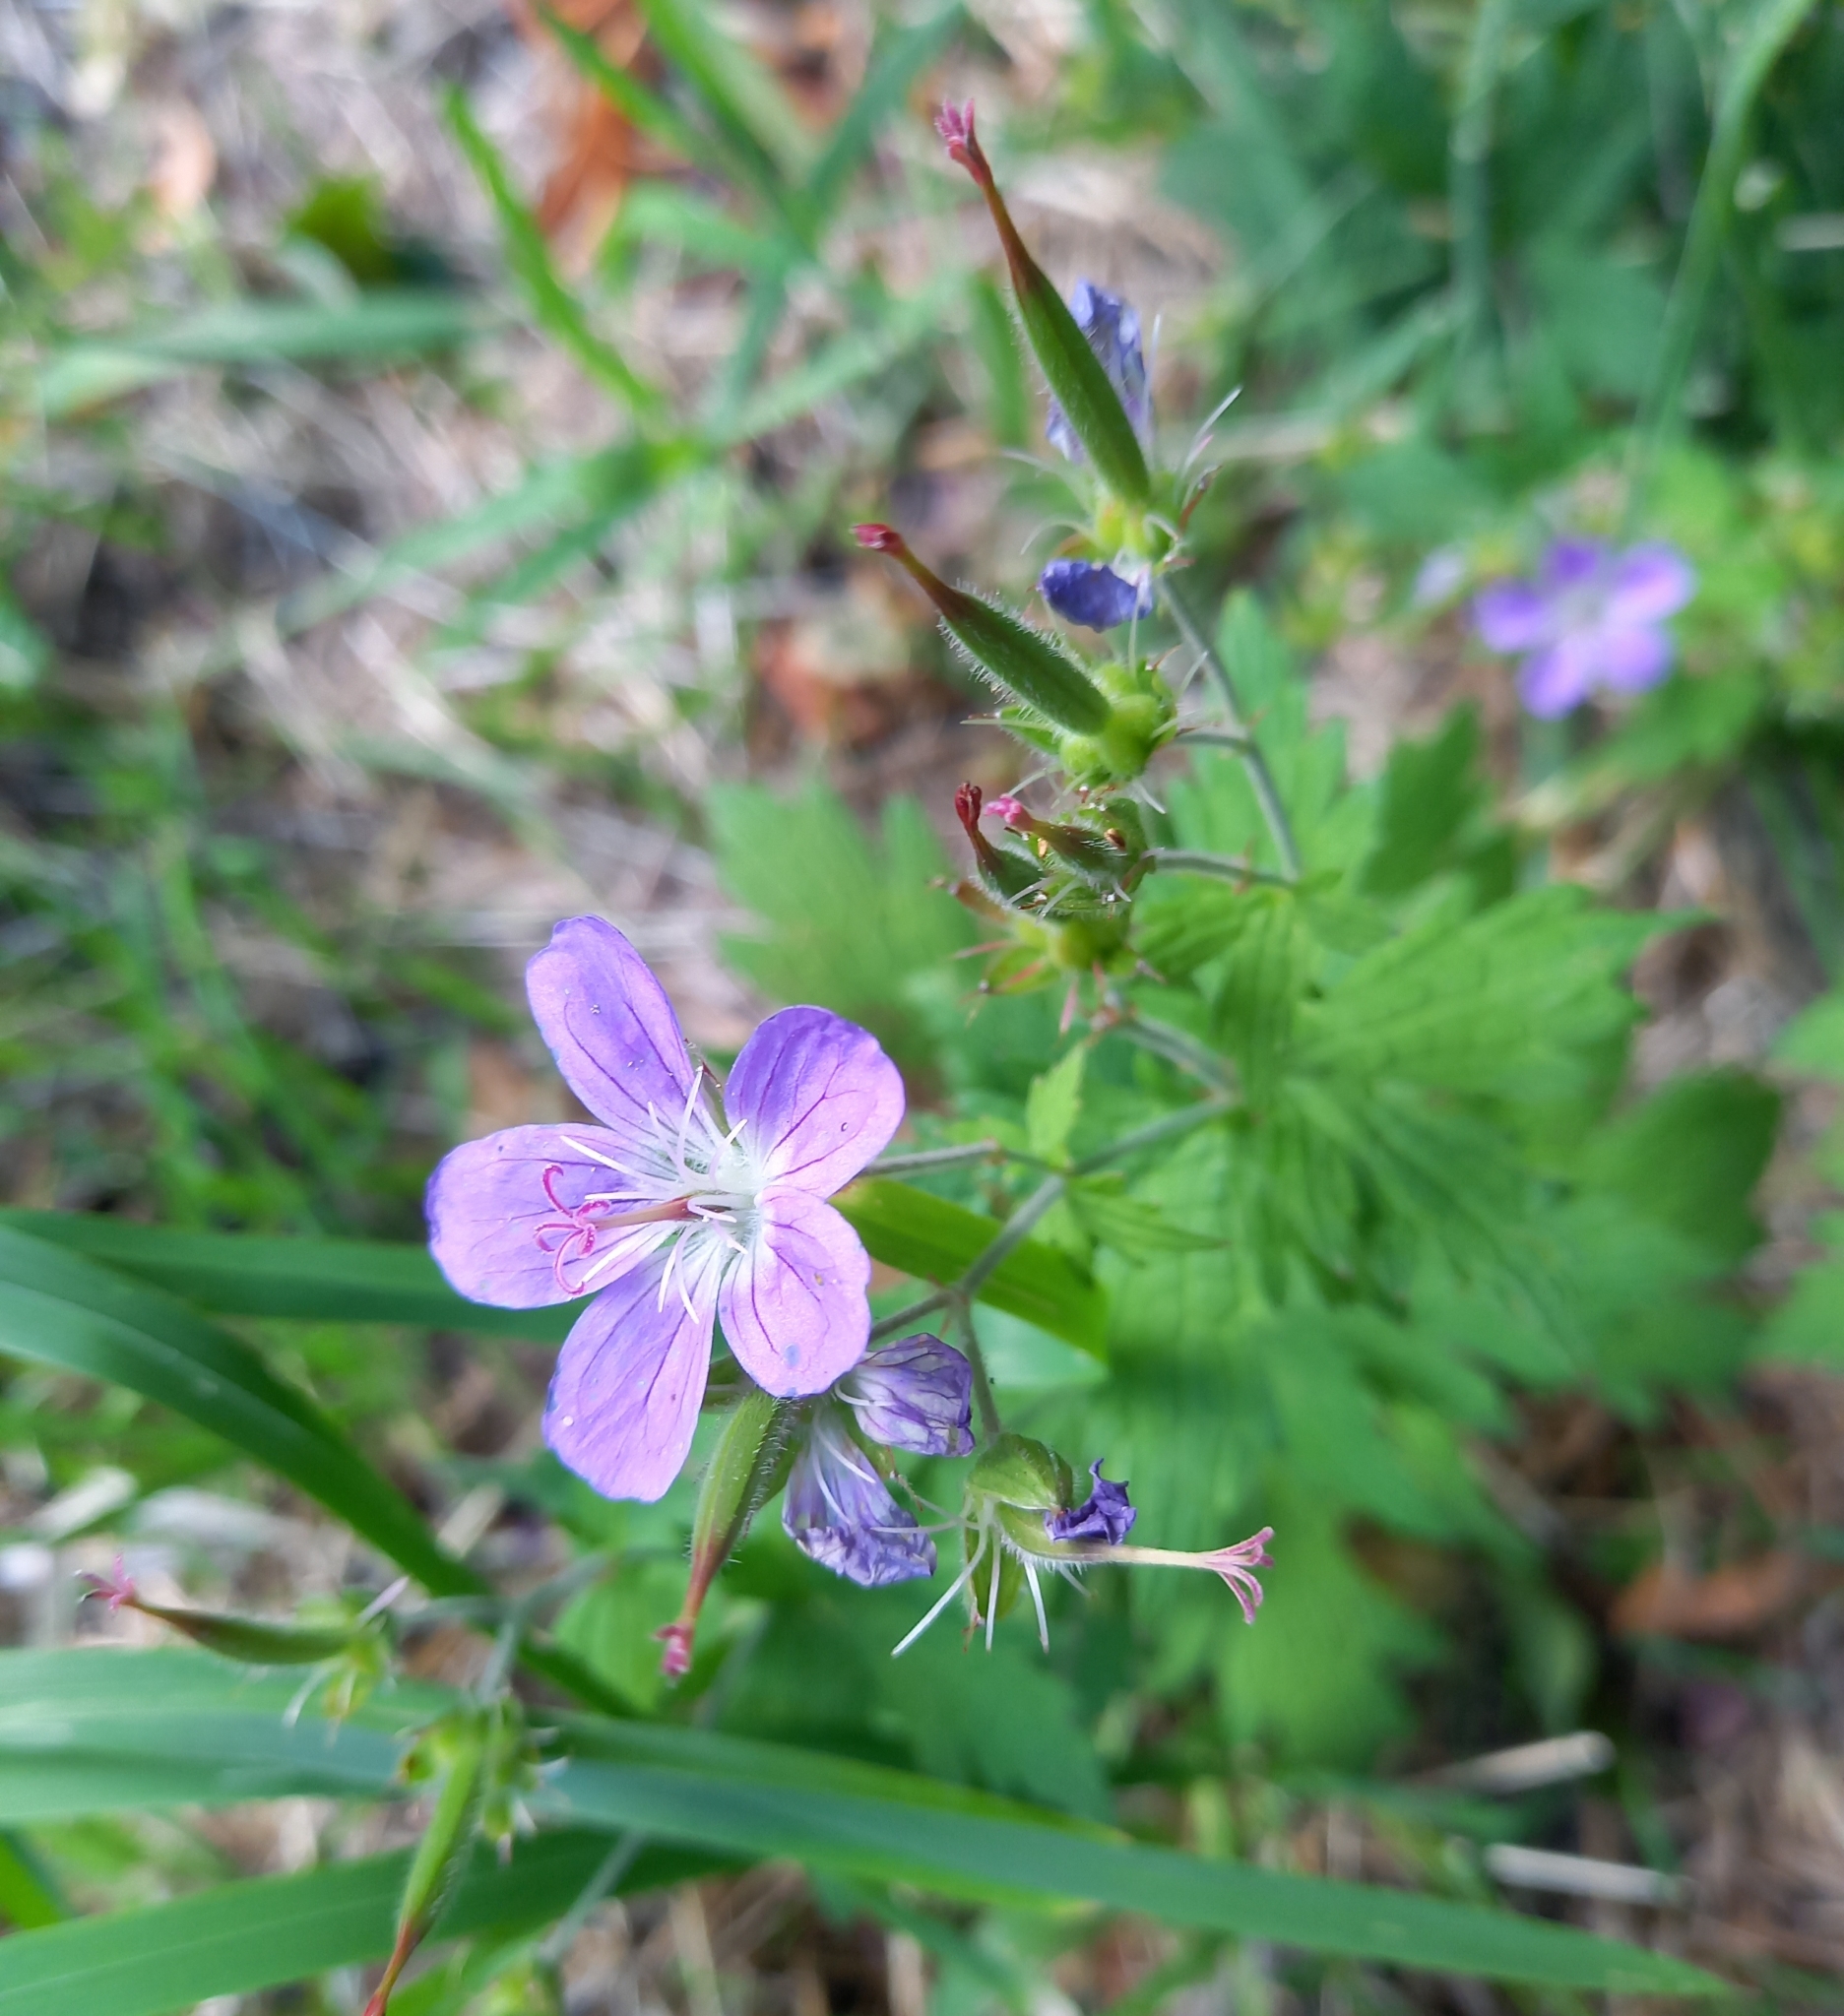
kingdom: Plantae
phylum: Tracheophyta
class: Magnoliopsida
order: Geraniales
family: Geraniaceae
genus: Geranium
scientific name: Geranium sylvaticum
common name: Wood crane's-bill
